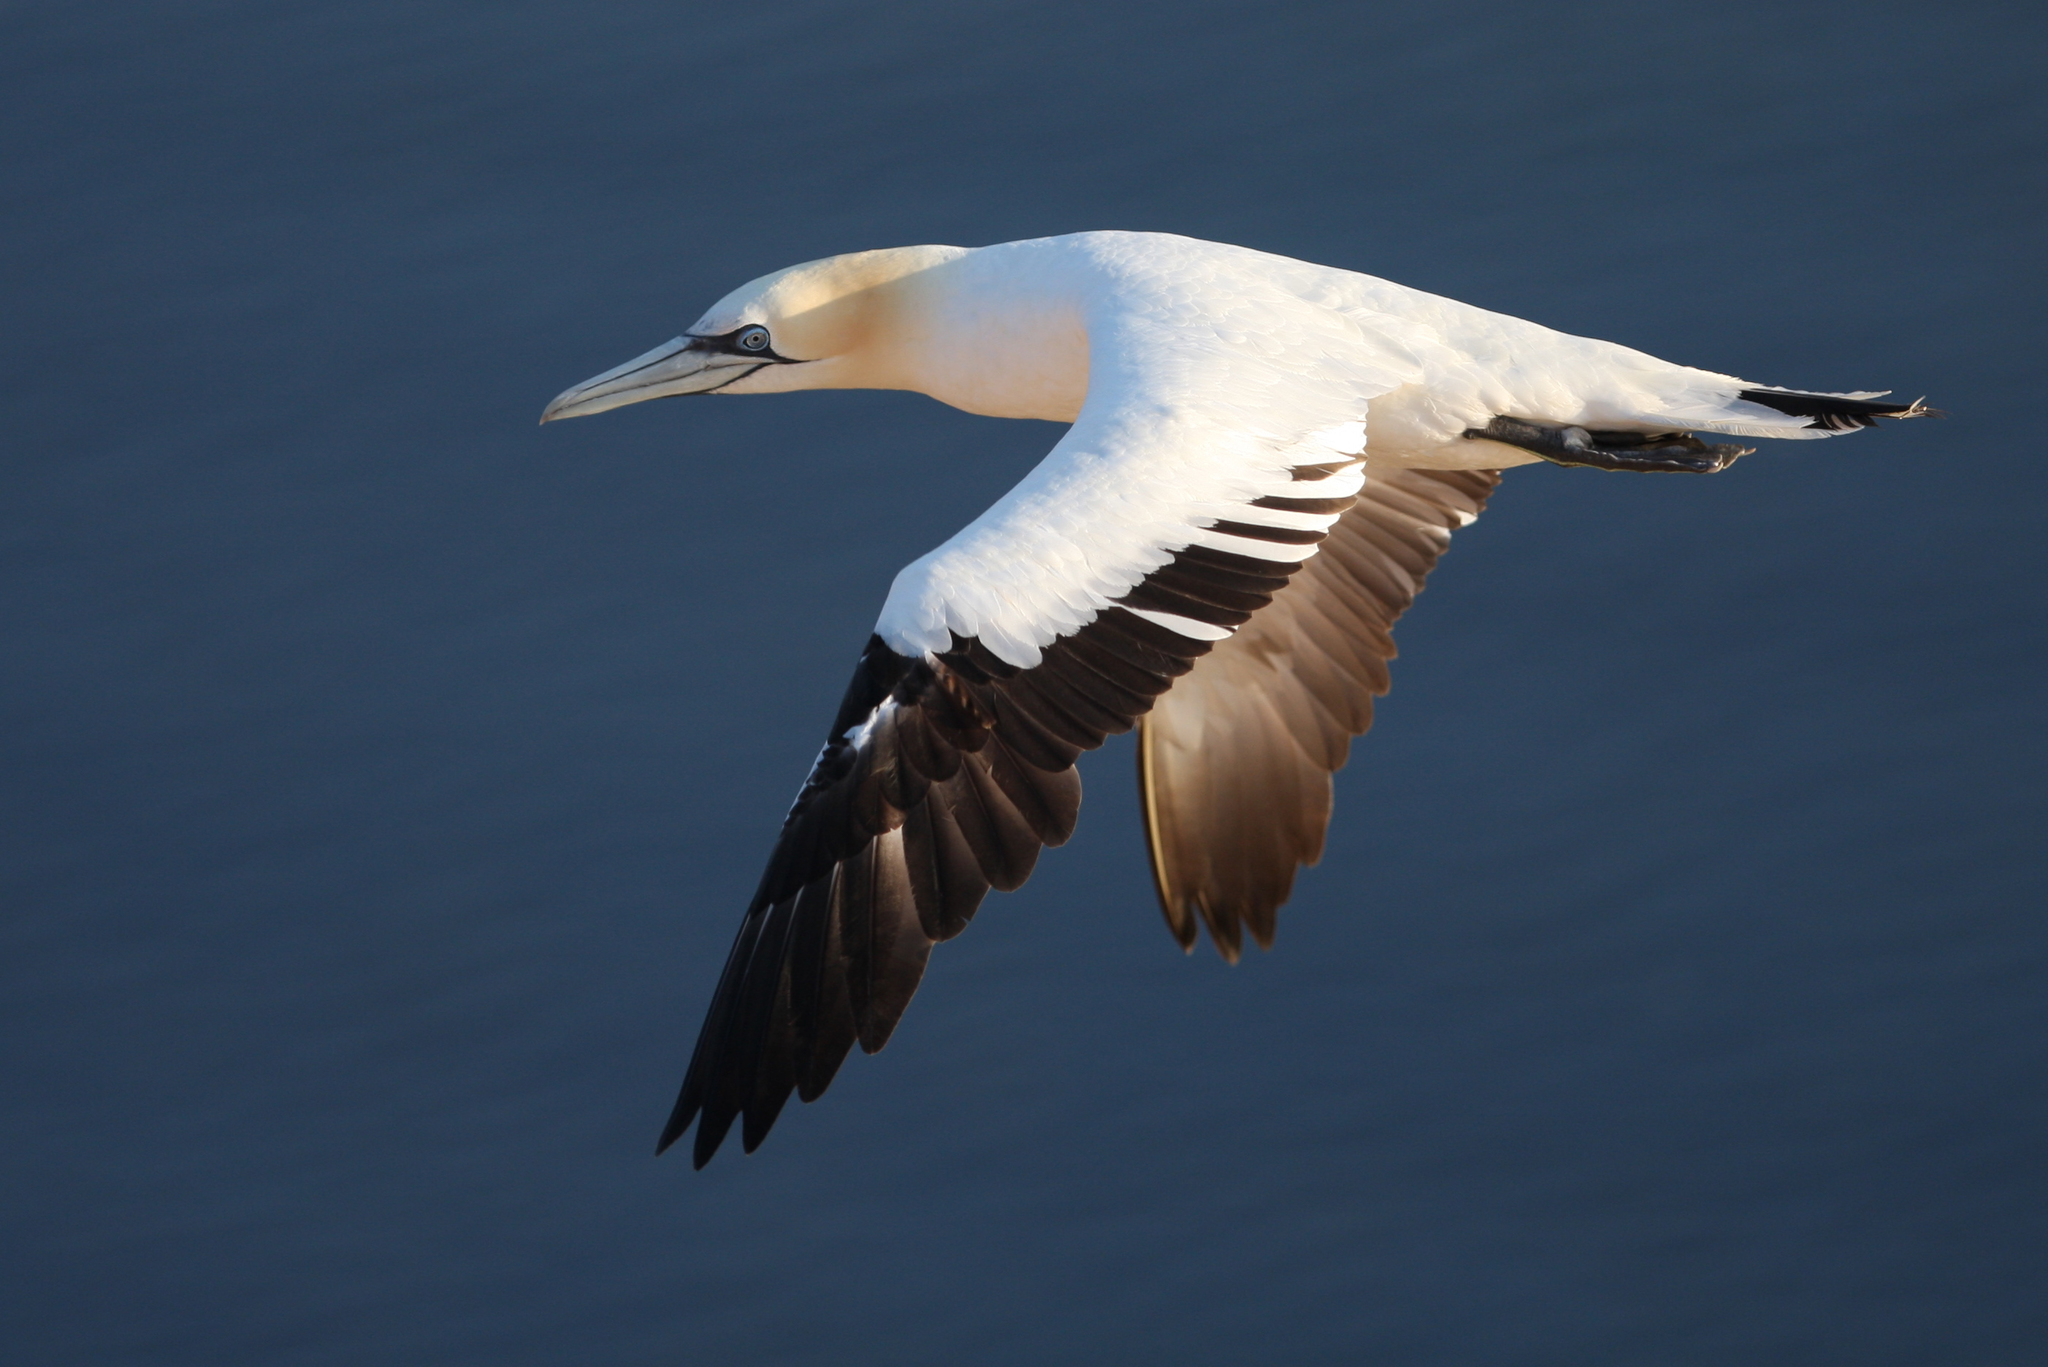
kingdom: Animalia
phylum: Chordata
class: Aves
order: Suliformes
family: Sulidae
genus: Morus
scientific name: Morus bassanus
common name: Northern gannet
